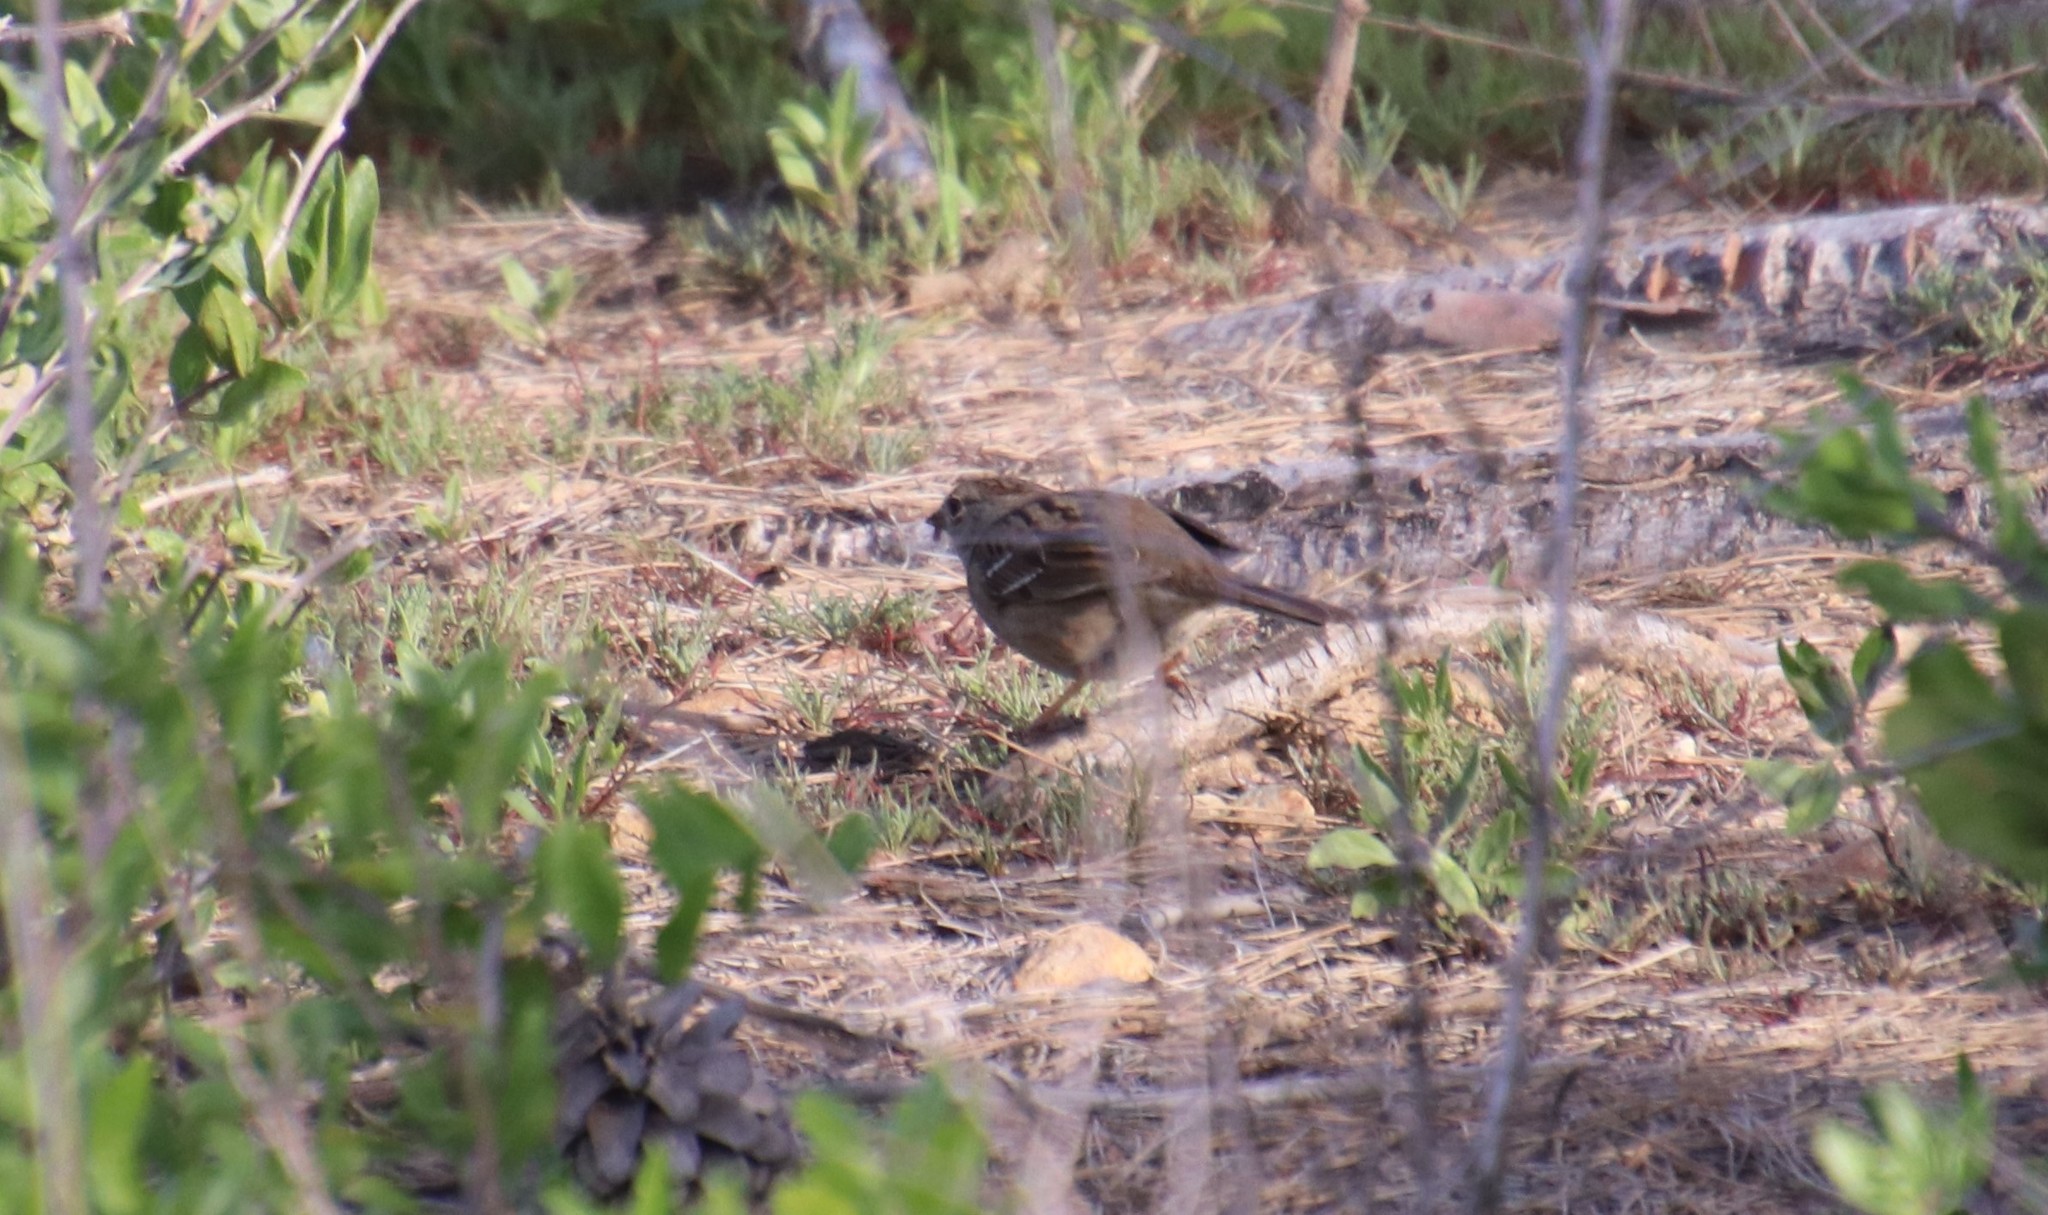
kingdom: Animalia
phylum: Chordata
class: Aves
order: Passeriformes
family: Passerellidae
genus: Zonotrichia
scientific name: Zonotrichia atricapilla
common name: Golden-crowned sparrow
